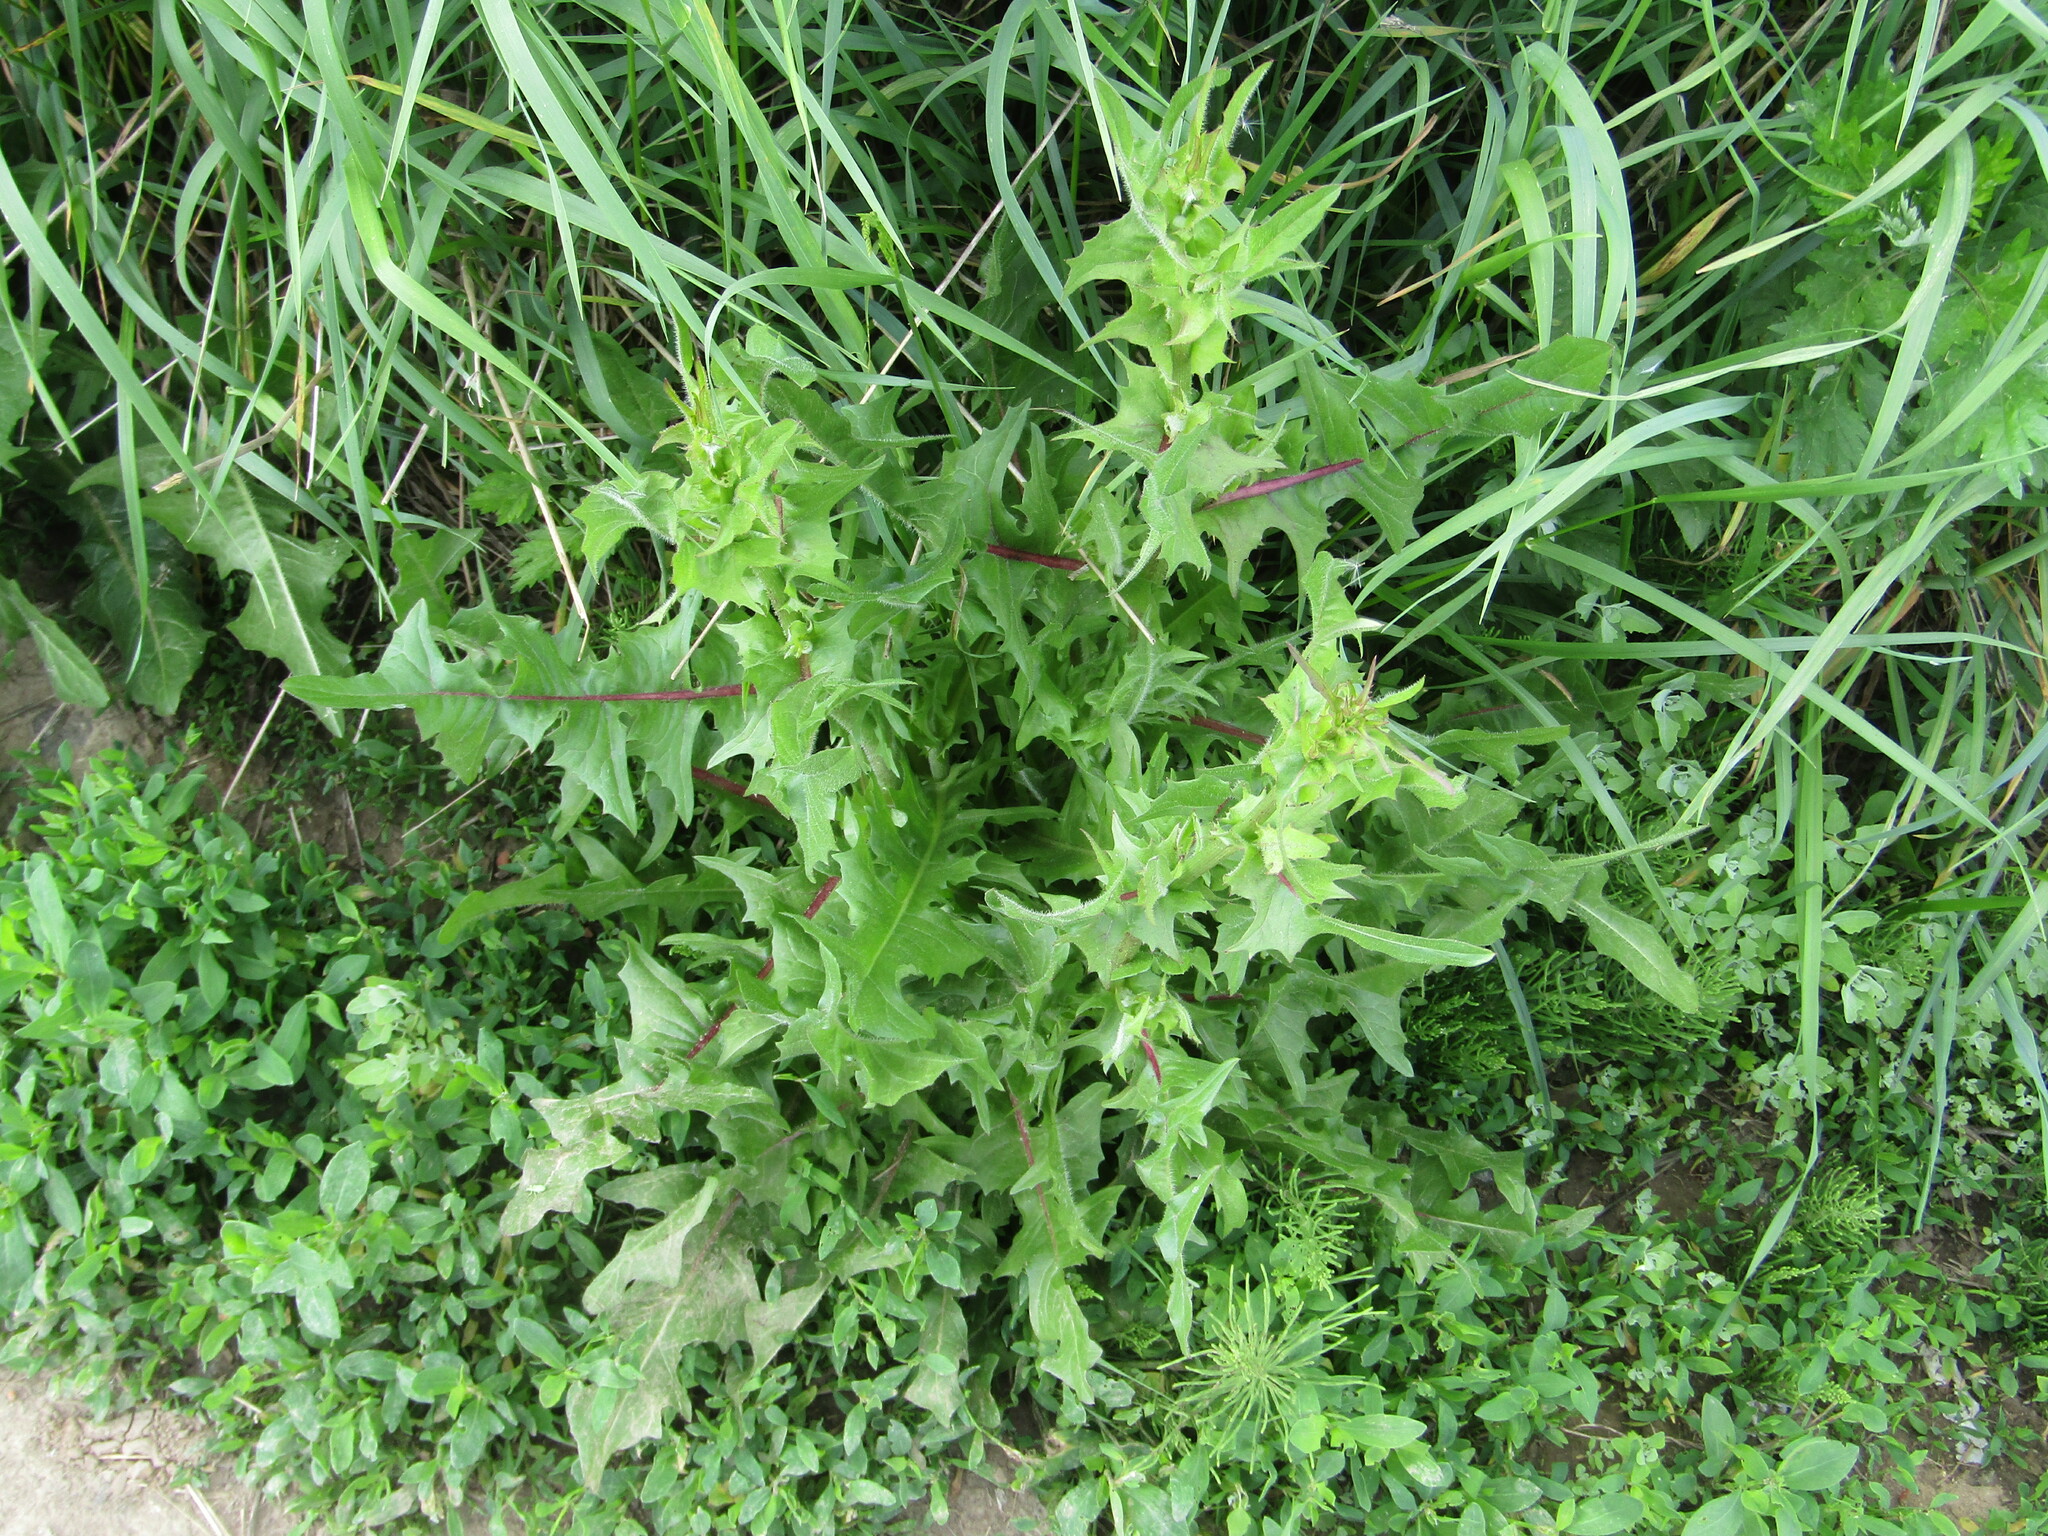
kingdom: Plantae
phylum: Tracheophyta
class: Magnoliopsida
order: Asterales
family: Asteraceae
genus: Cichorium
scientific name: Cichorium intybus
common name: Chicory
